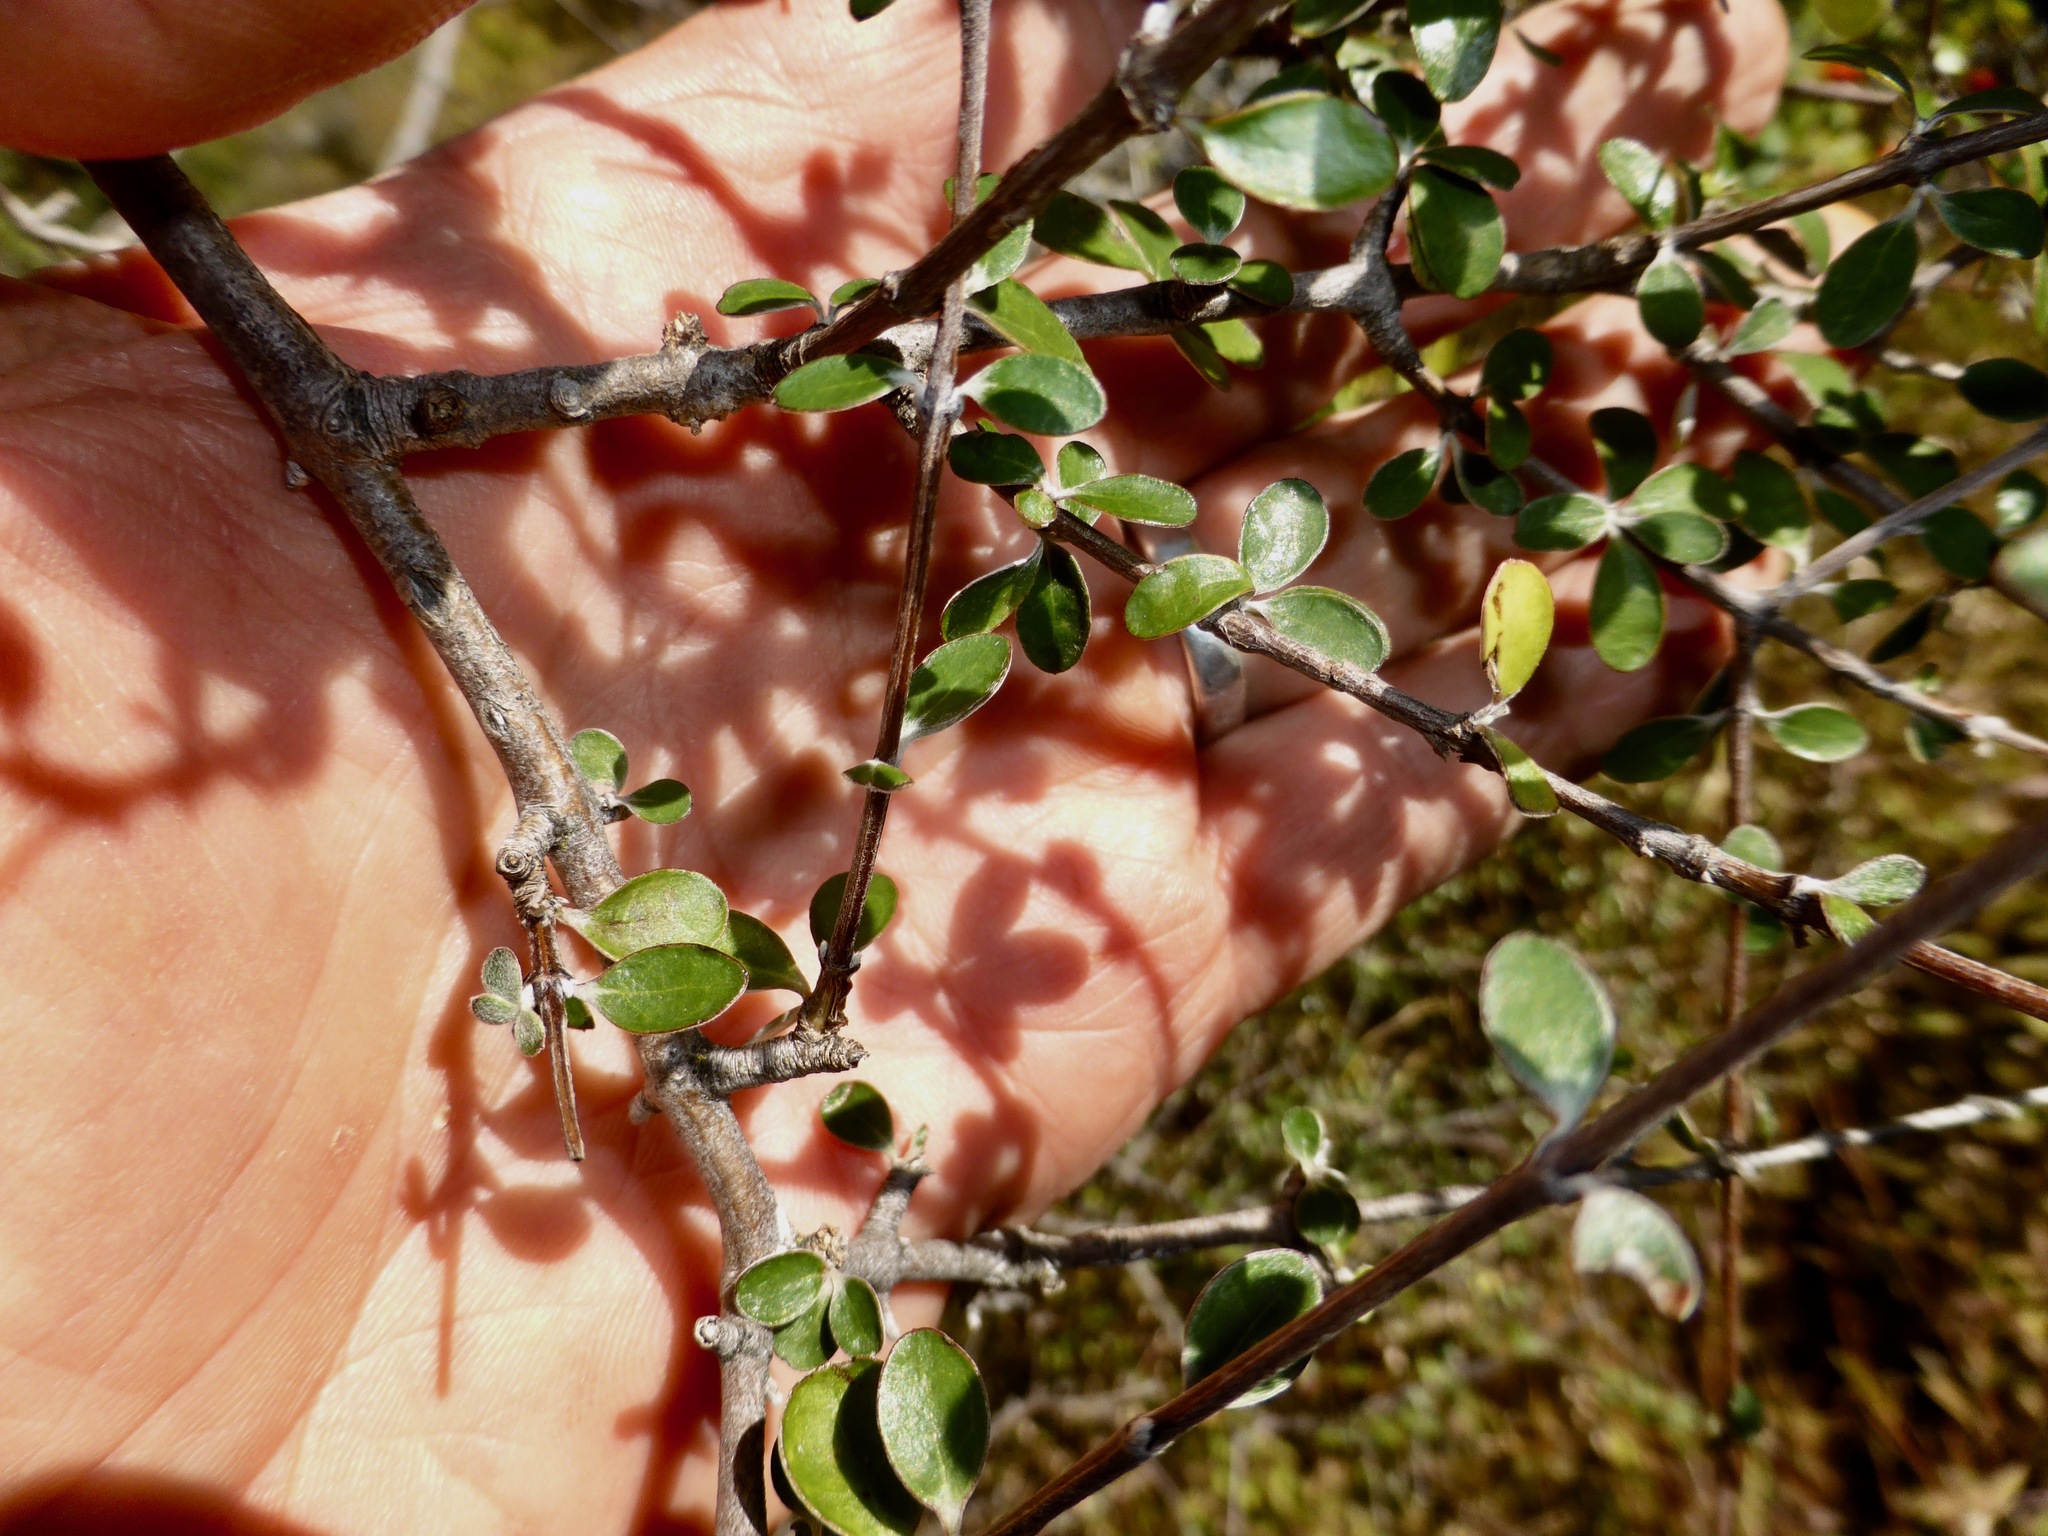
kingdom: Plantae
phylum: Tracheophyta
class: Magnoliopsida
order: Asterales
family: Asteraceae
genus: Olearia
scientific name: Olearia fimbriata
